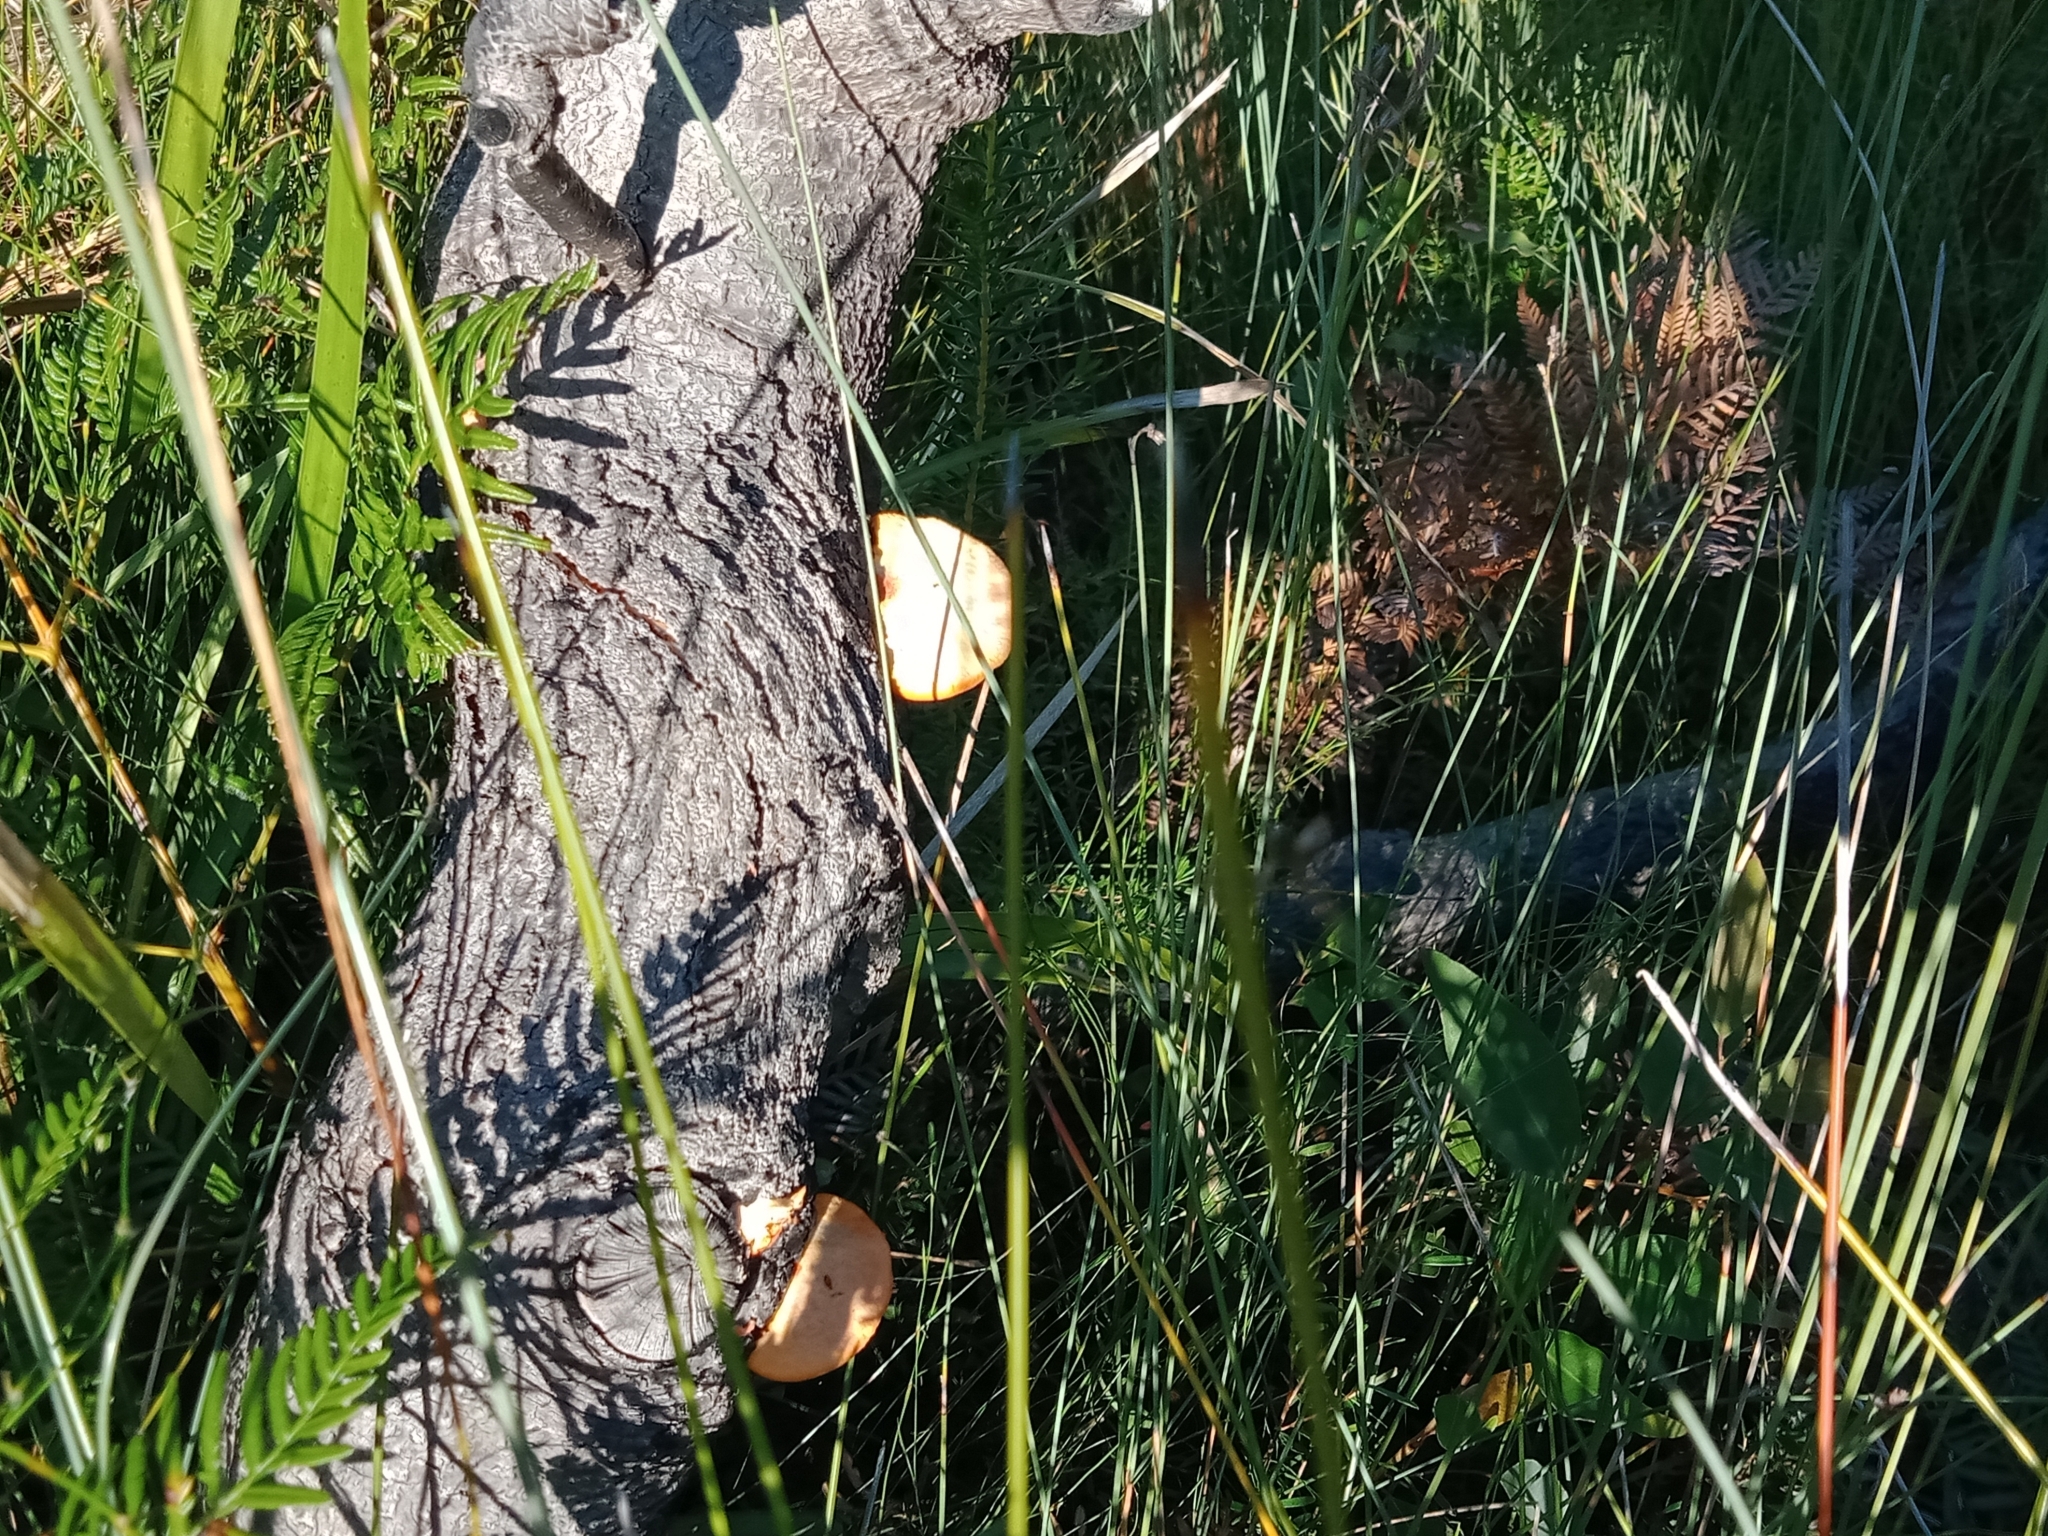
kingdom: Fungi
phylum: Basidiomycota
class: Agaricomycetes
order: Polyporales
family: Polyporaceae
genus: Trametes
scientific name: Trametes coccinea
